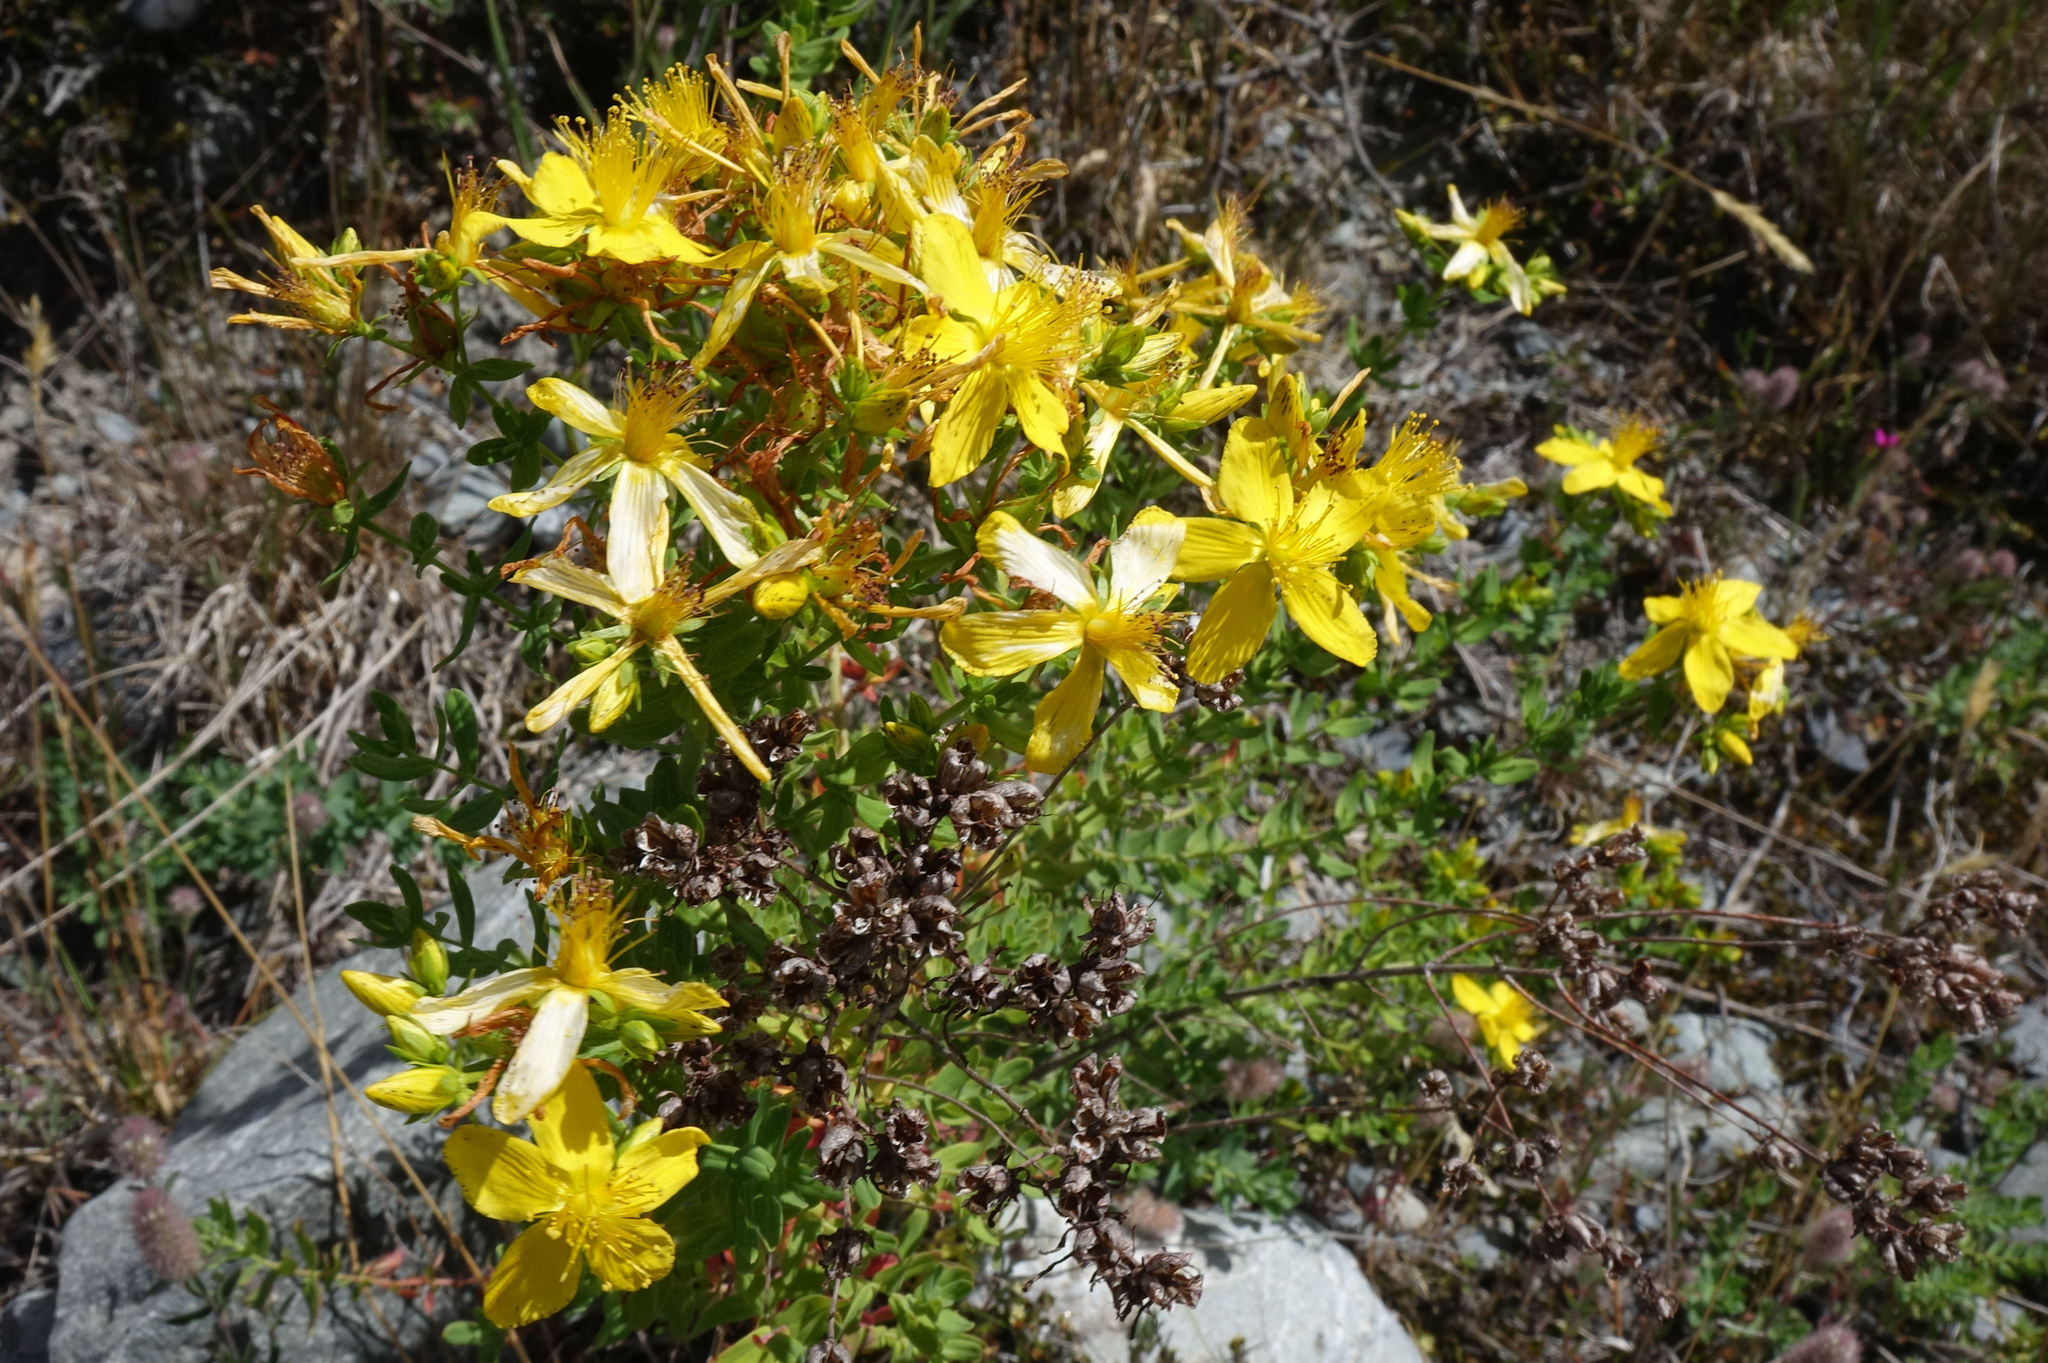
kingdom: Plantae
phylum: Tracheophyta
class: Magnoliopsida
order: Malpighiales
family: Hypericaceae
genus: Hypericum
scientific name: Hypericum perforatum
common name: Common st. johnswort
